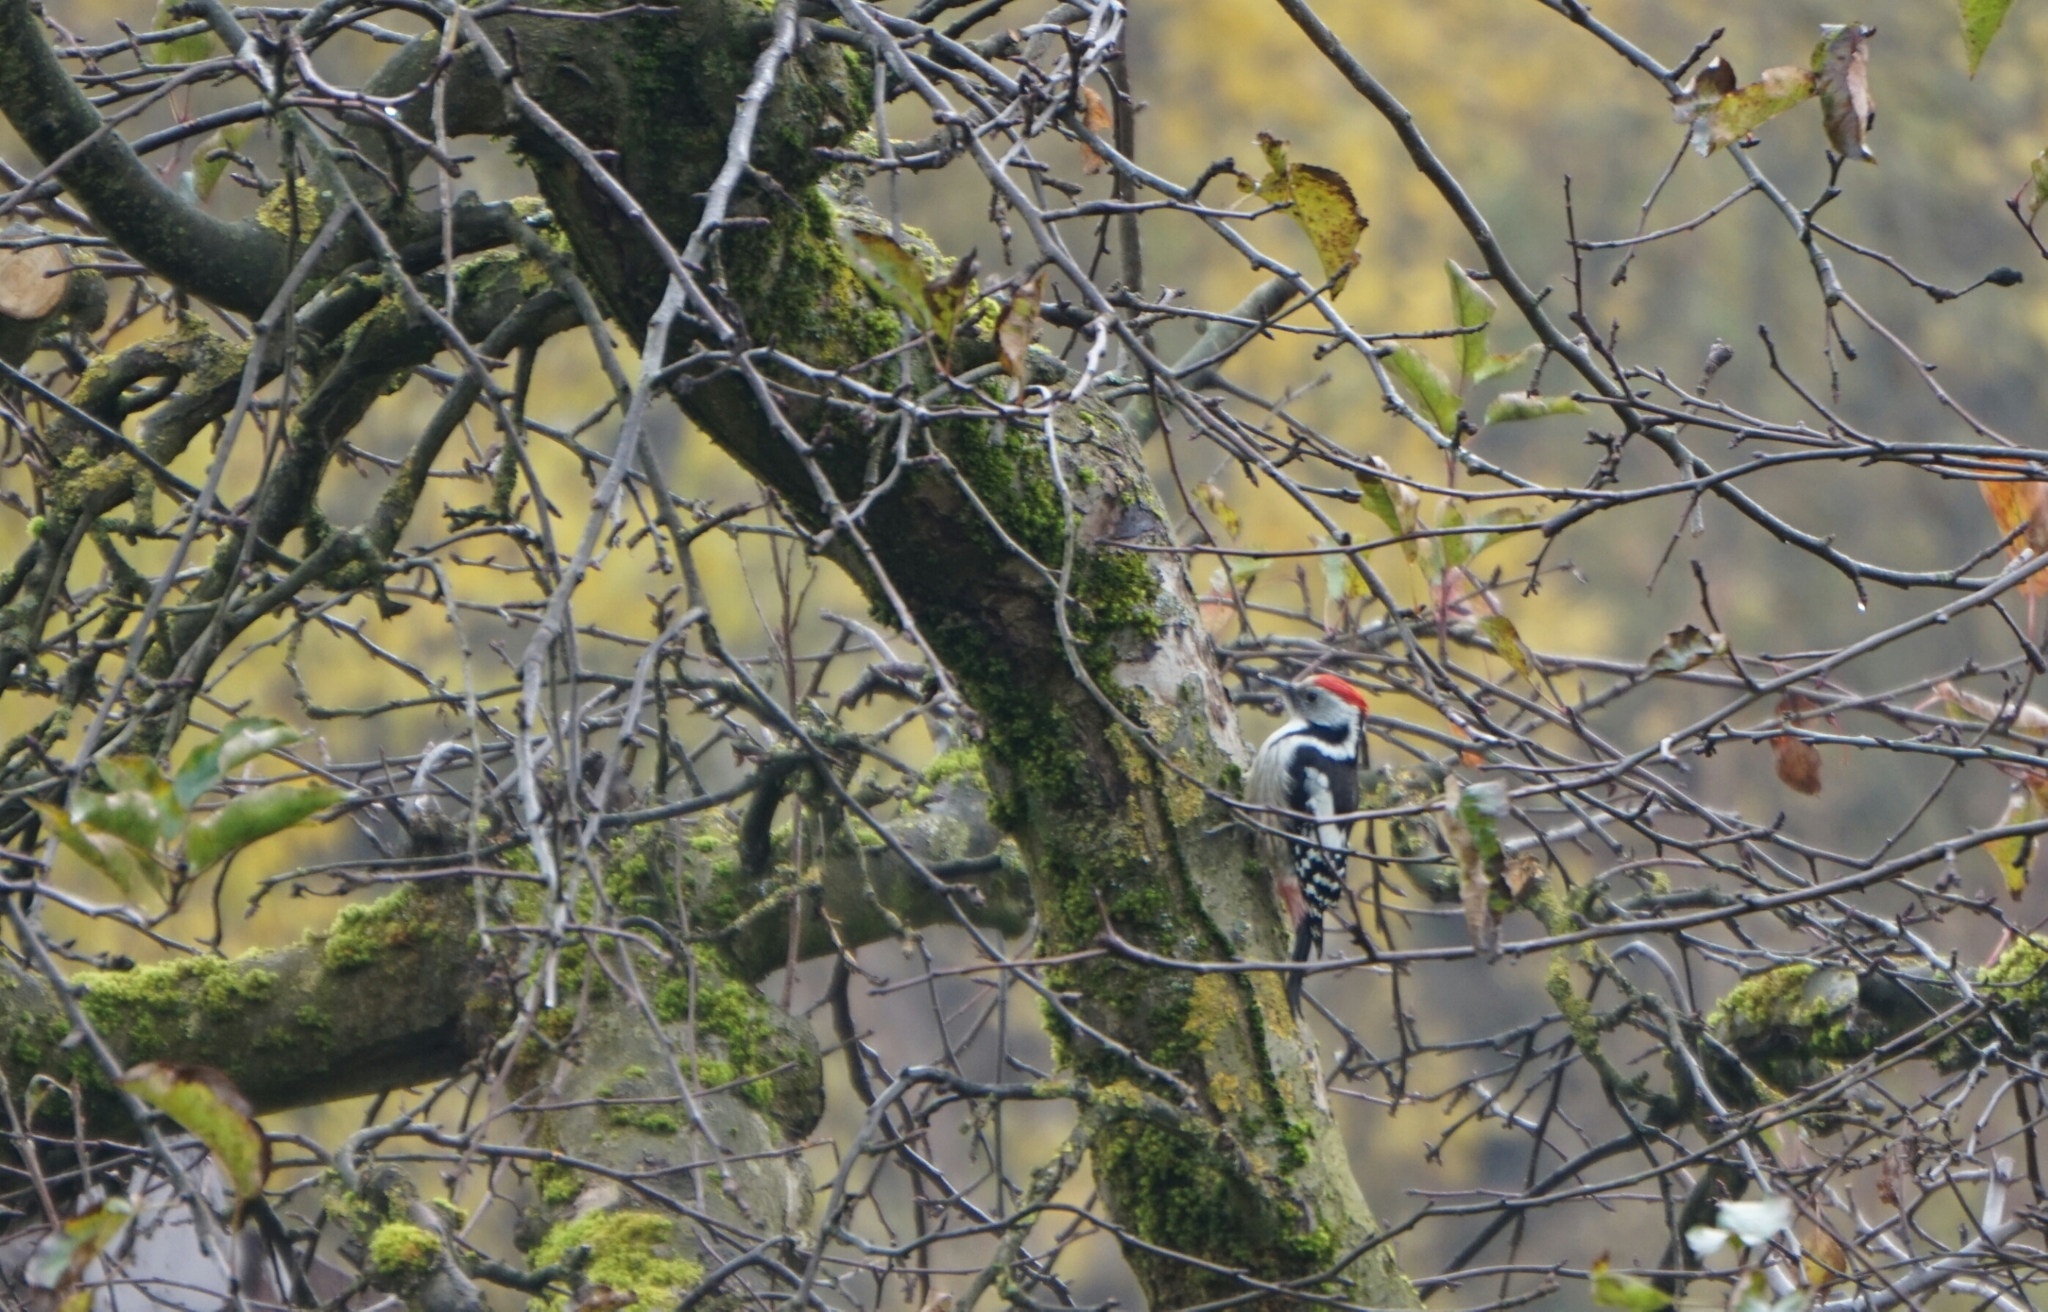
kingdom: Animalia
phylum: Chordata
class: Aves
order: Piciformes
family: Picidae
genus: Dendrocoptes
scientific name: Dendrocoptes medius
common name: Middle spotted woodpecker
